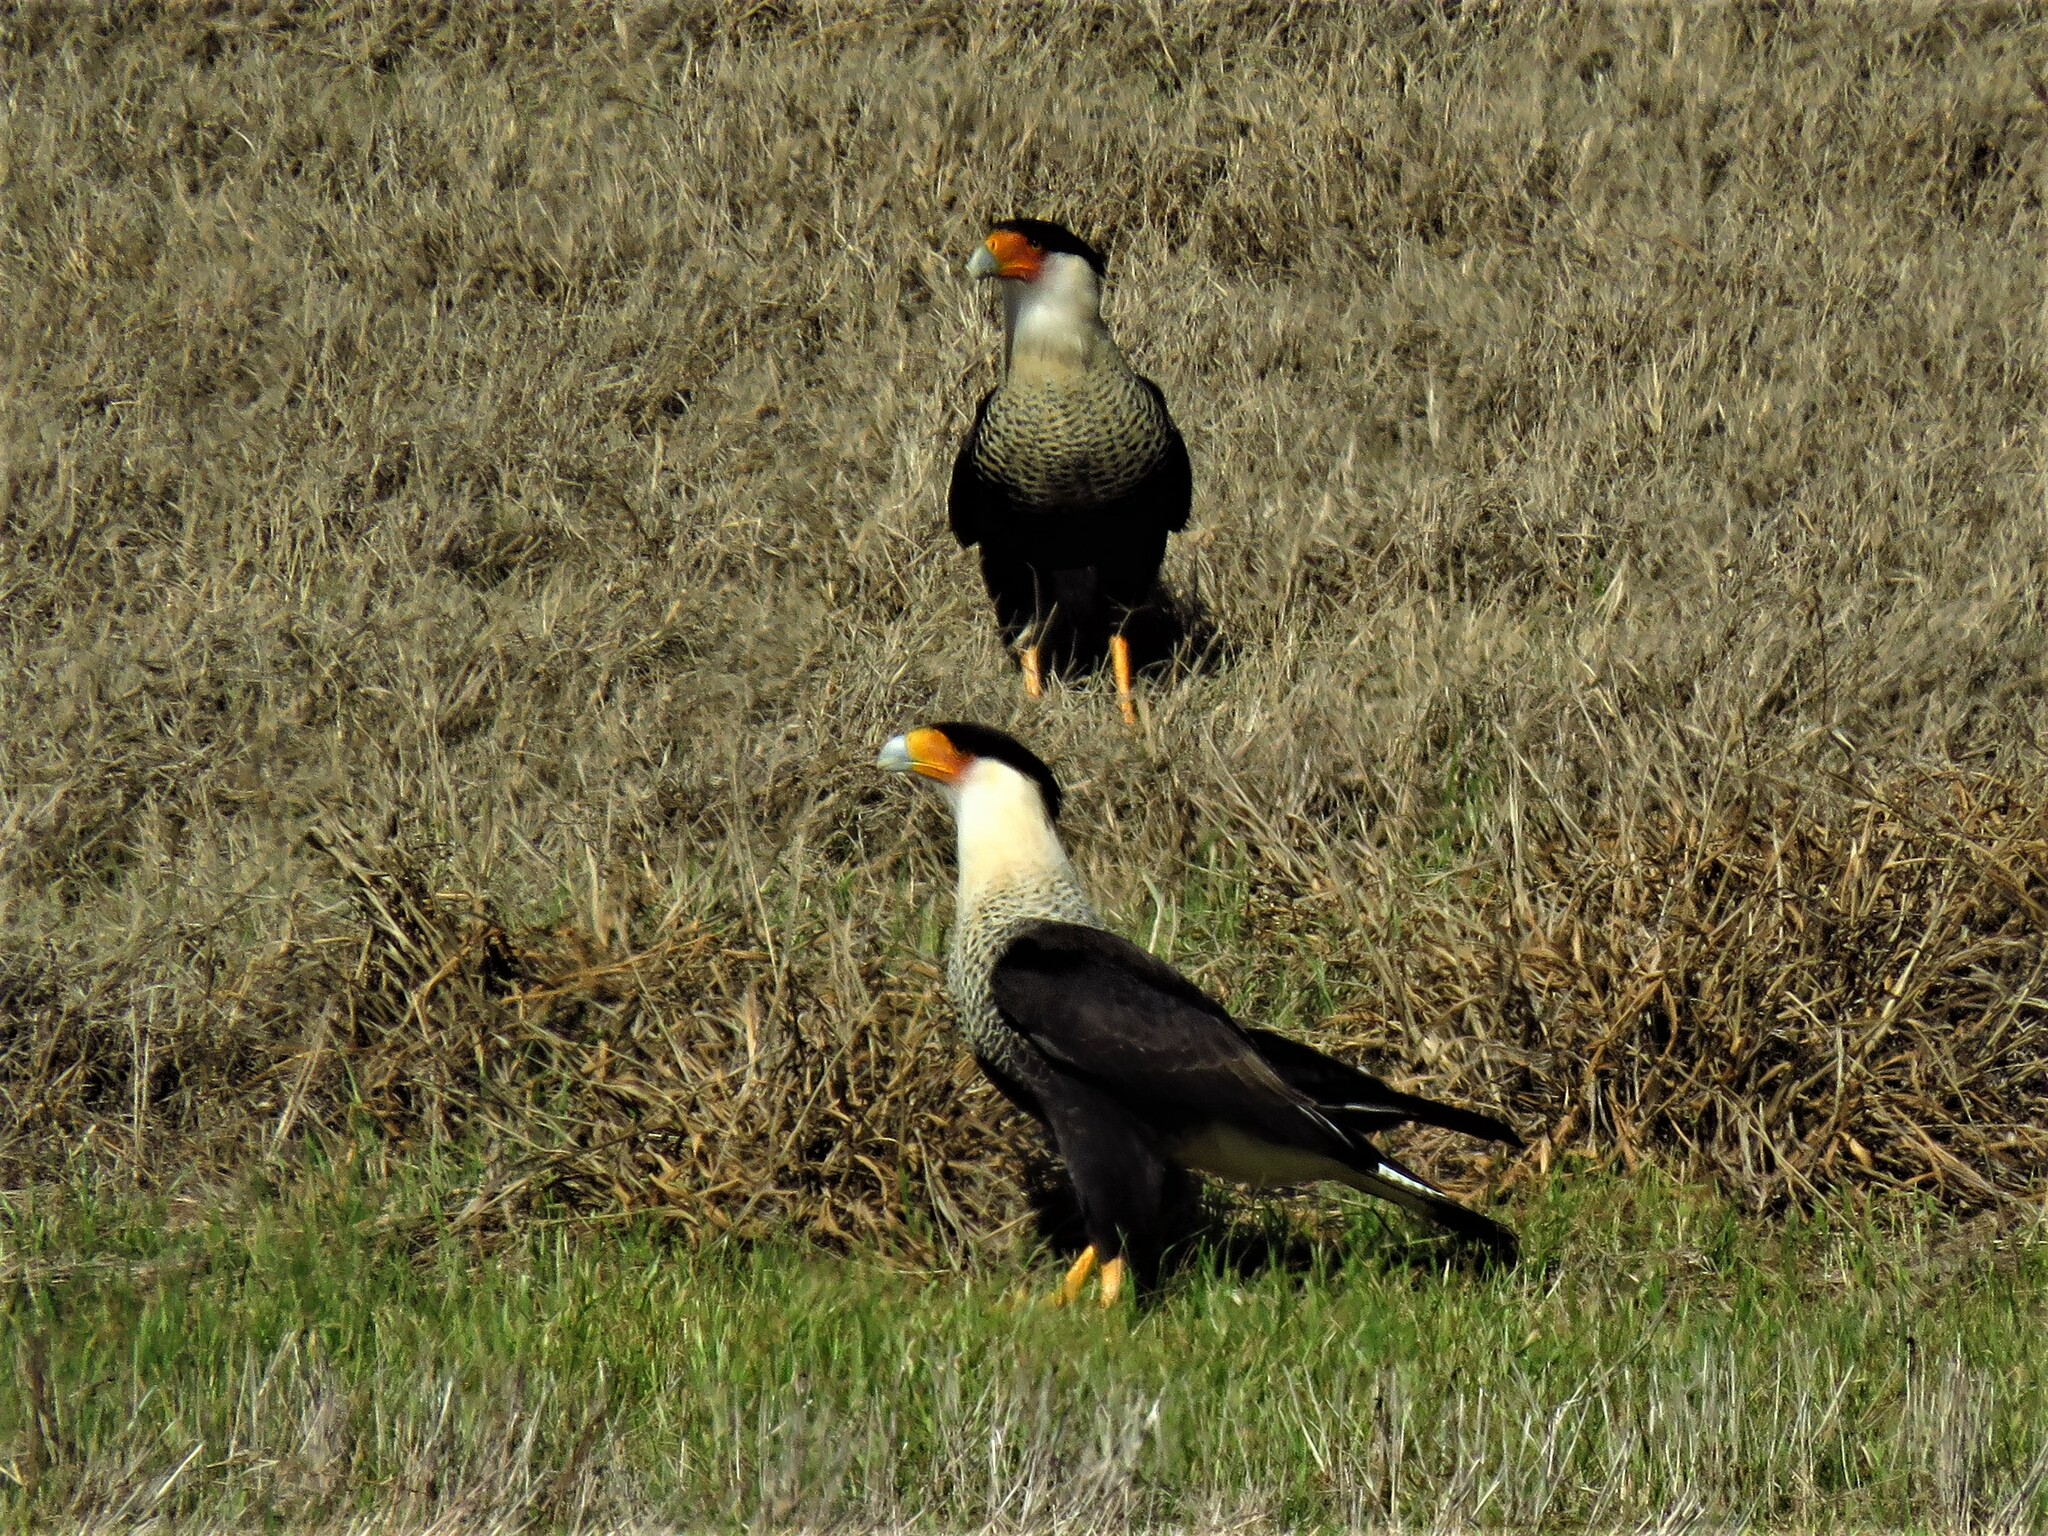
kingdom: Animalia
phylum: Chordata
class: Aves
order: Falconiformes
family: Falconidae
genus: Caracara
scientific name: Caracara plancus
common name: Southern caracara
